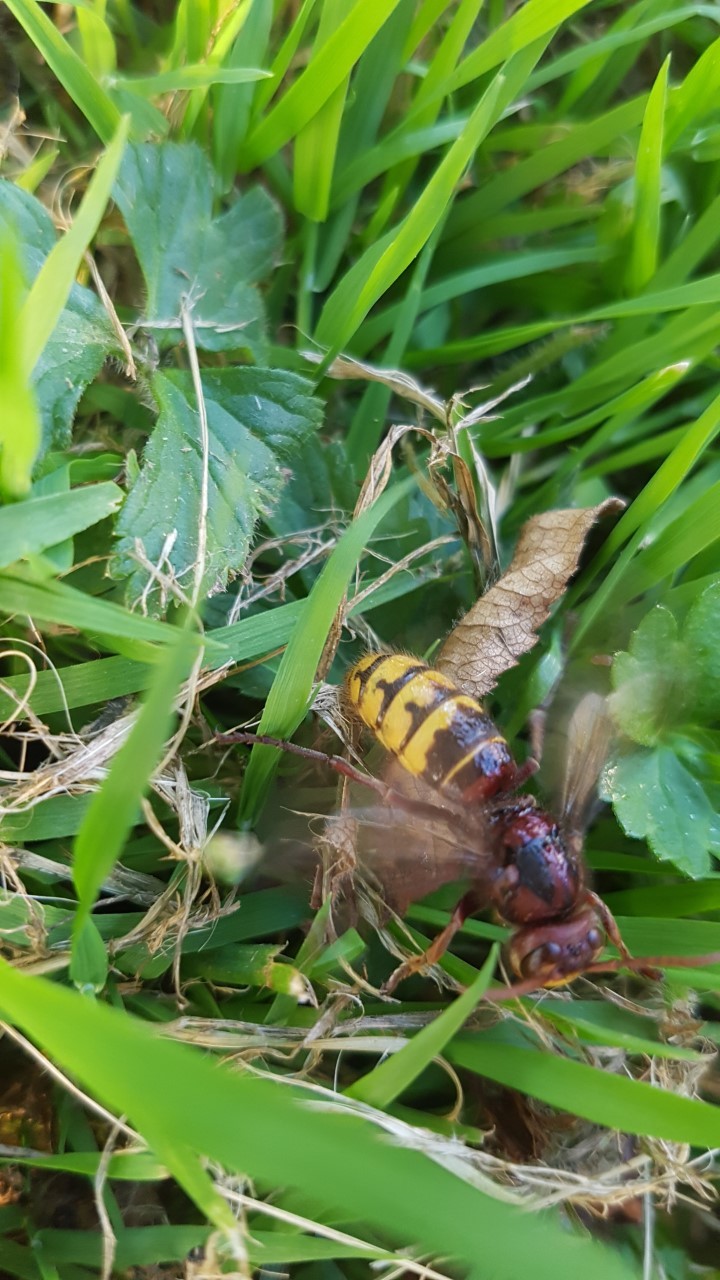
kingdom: Animalia
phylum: Arthropoda
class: Insecta
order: Hymenoptera
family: Vespidae
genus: Vespa
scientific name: Vespa crabro
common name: Hornet
